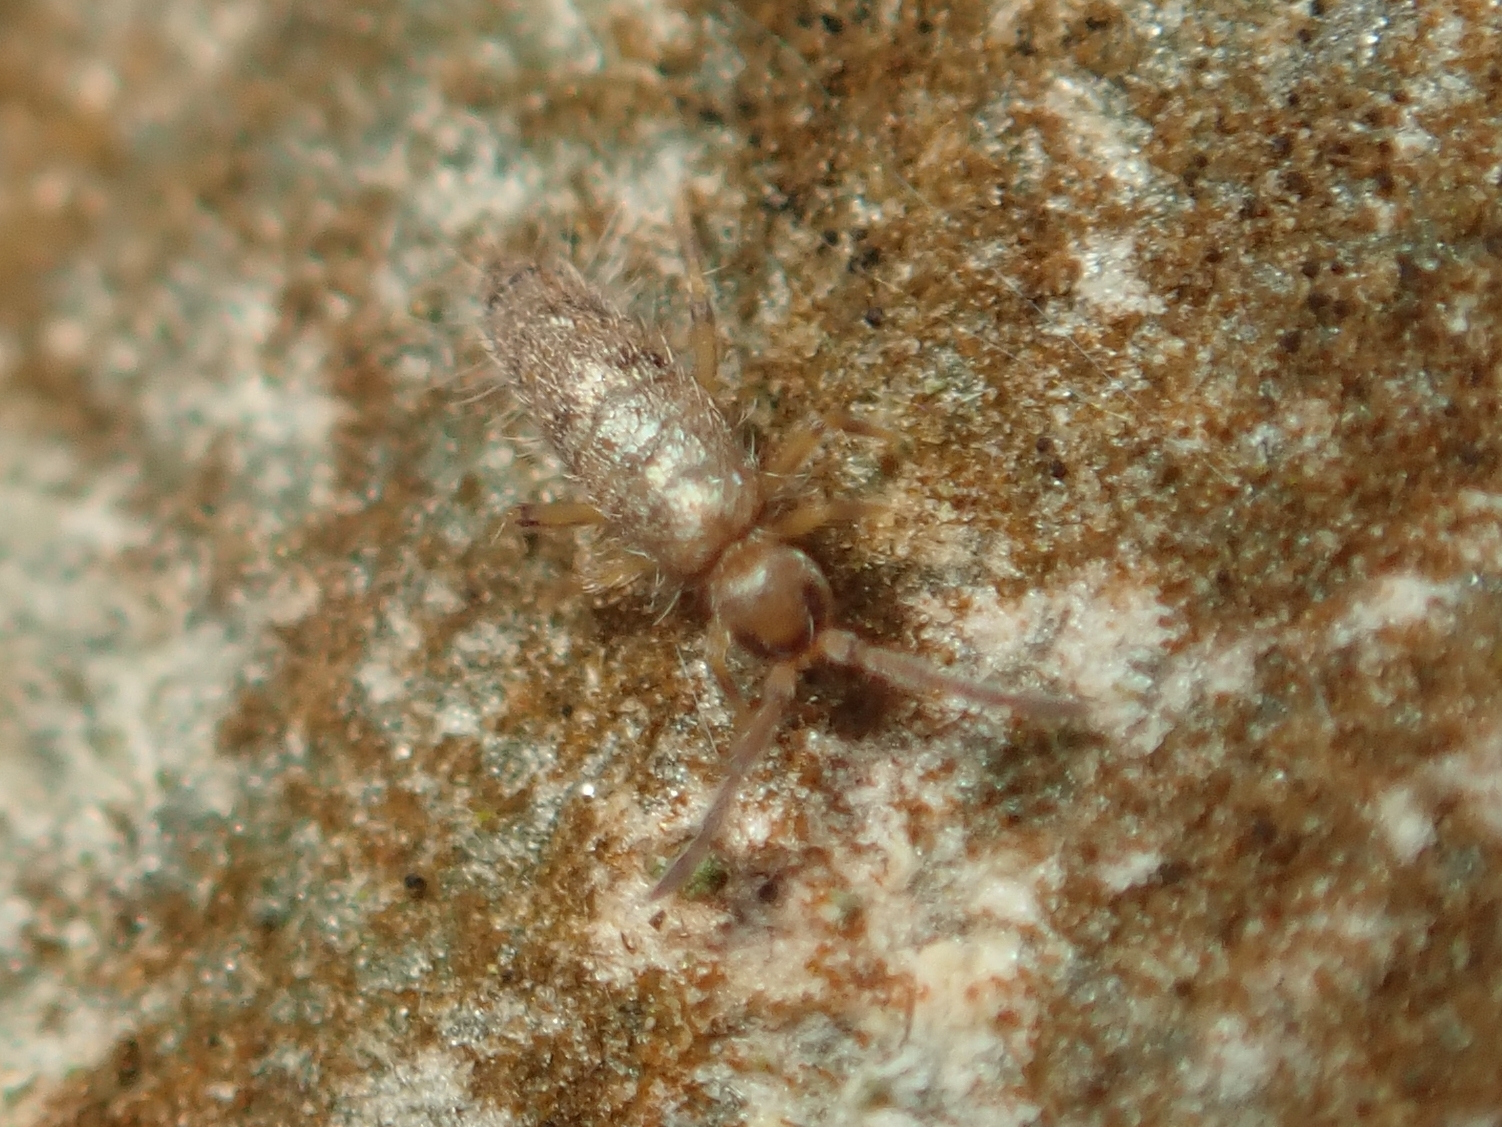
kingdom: Animalia
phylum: Arthropoda
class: Collembola
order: Entomobryomorpha
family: Entomobryidae
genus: Willowsia
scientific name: Willowsia nigromaculata
